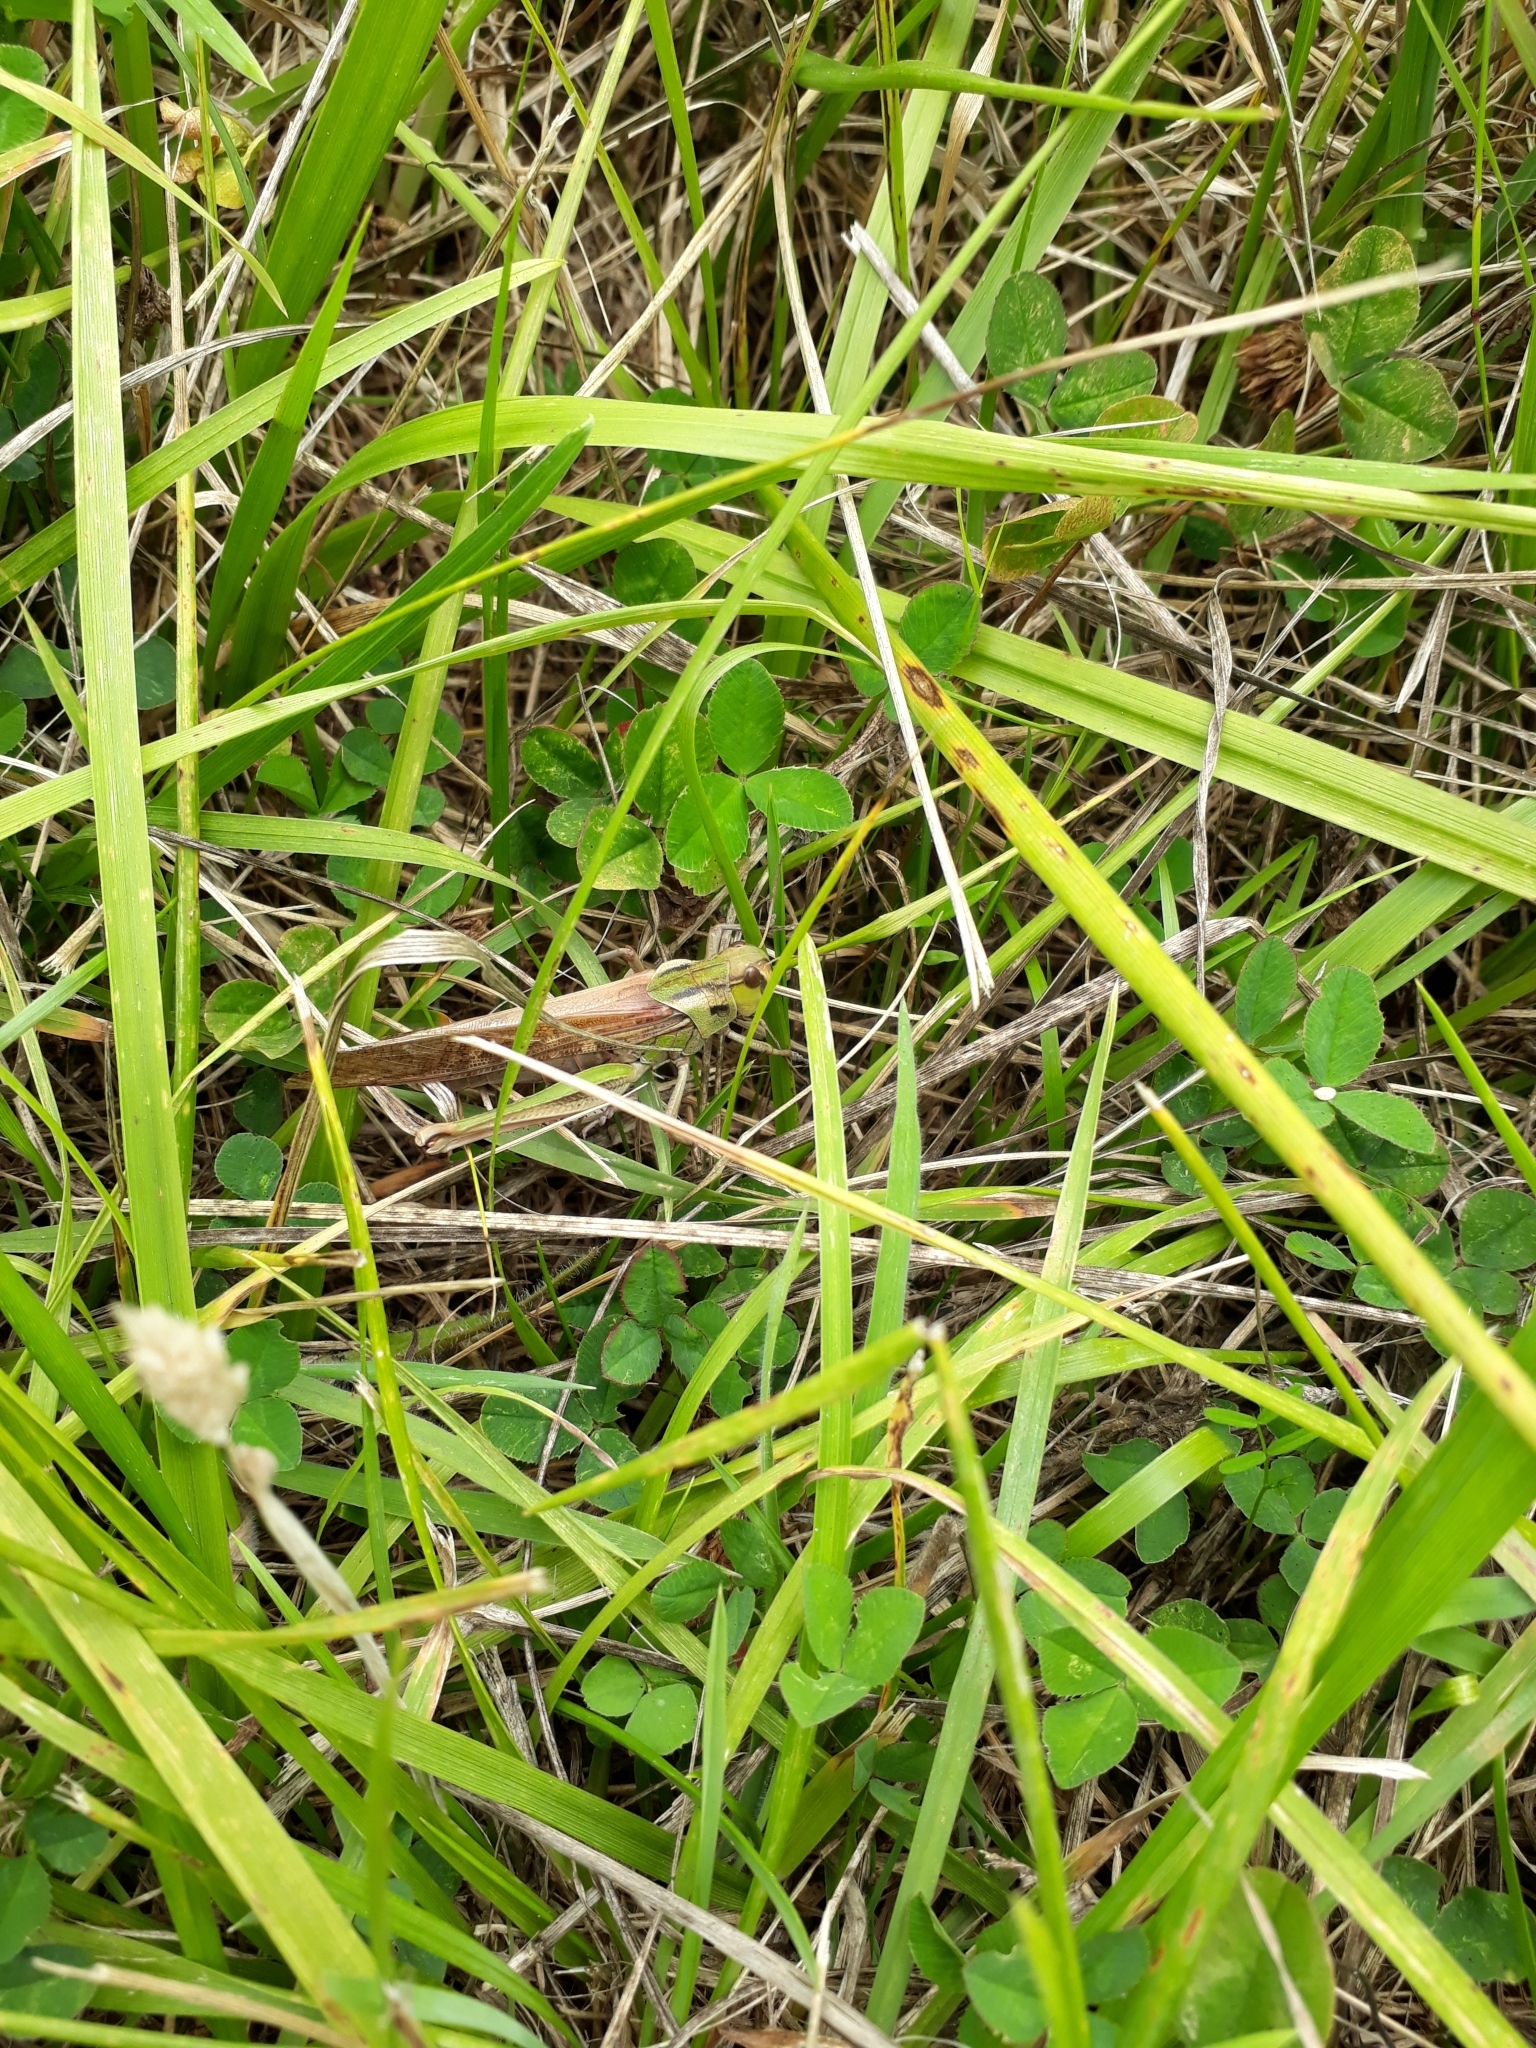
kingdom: Animalia
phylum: Arthropoda
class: Insecta
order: Orthoptera
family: Acrididae
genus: Locusta
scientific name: Locusta migratoria
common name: Migratory locust
